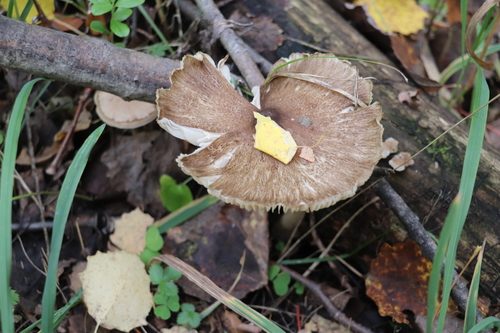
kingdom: Fungi
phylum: Basidiomycota
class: Agaricomycetes
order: Agaricales
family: Tricholomataceae
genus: Megacollybia
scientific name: Megacollybia platyphylla
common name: Whitelaced shank
